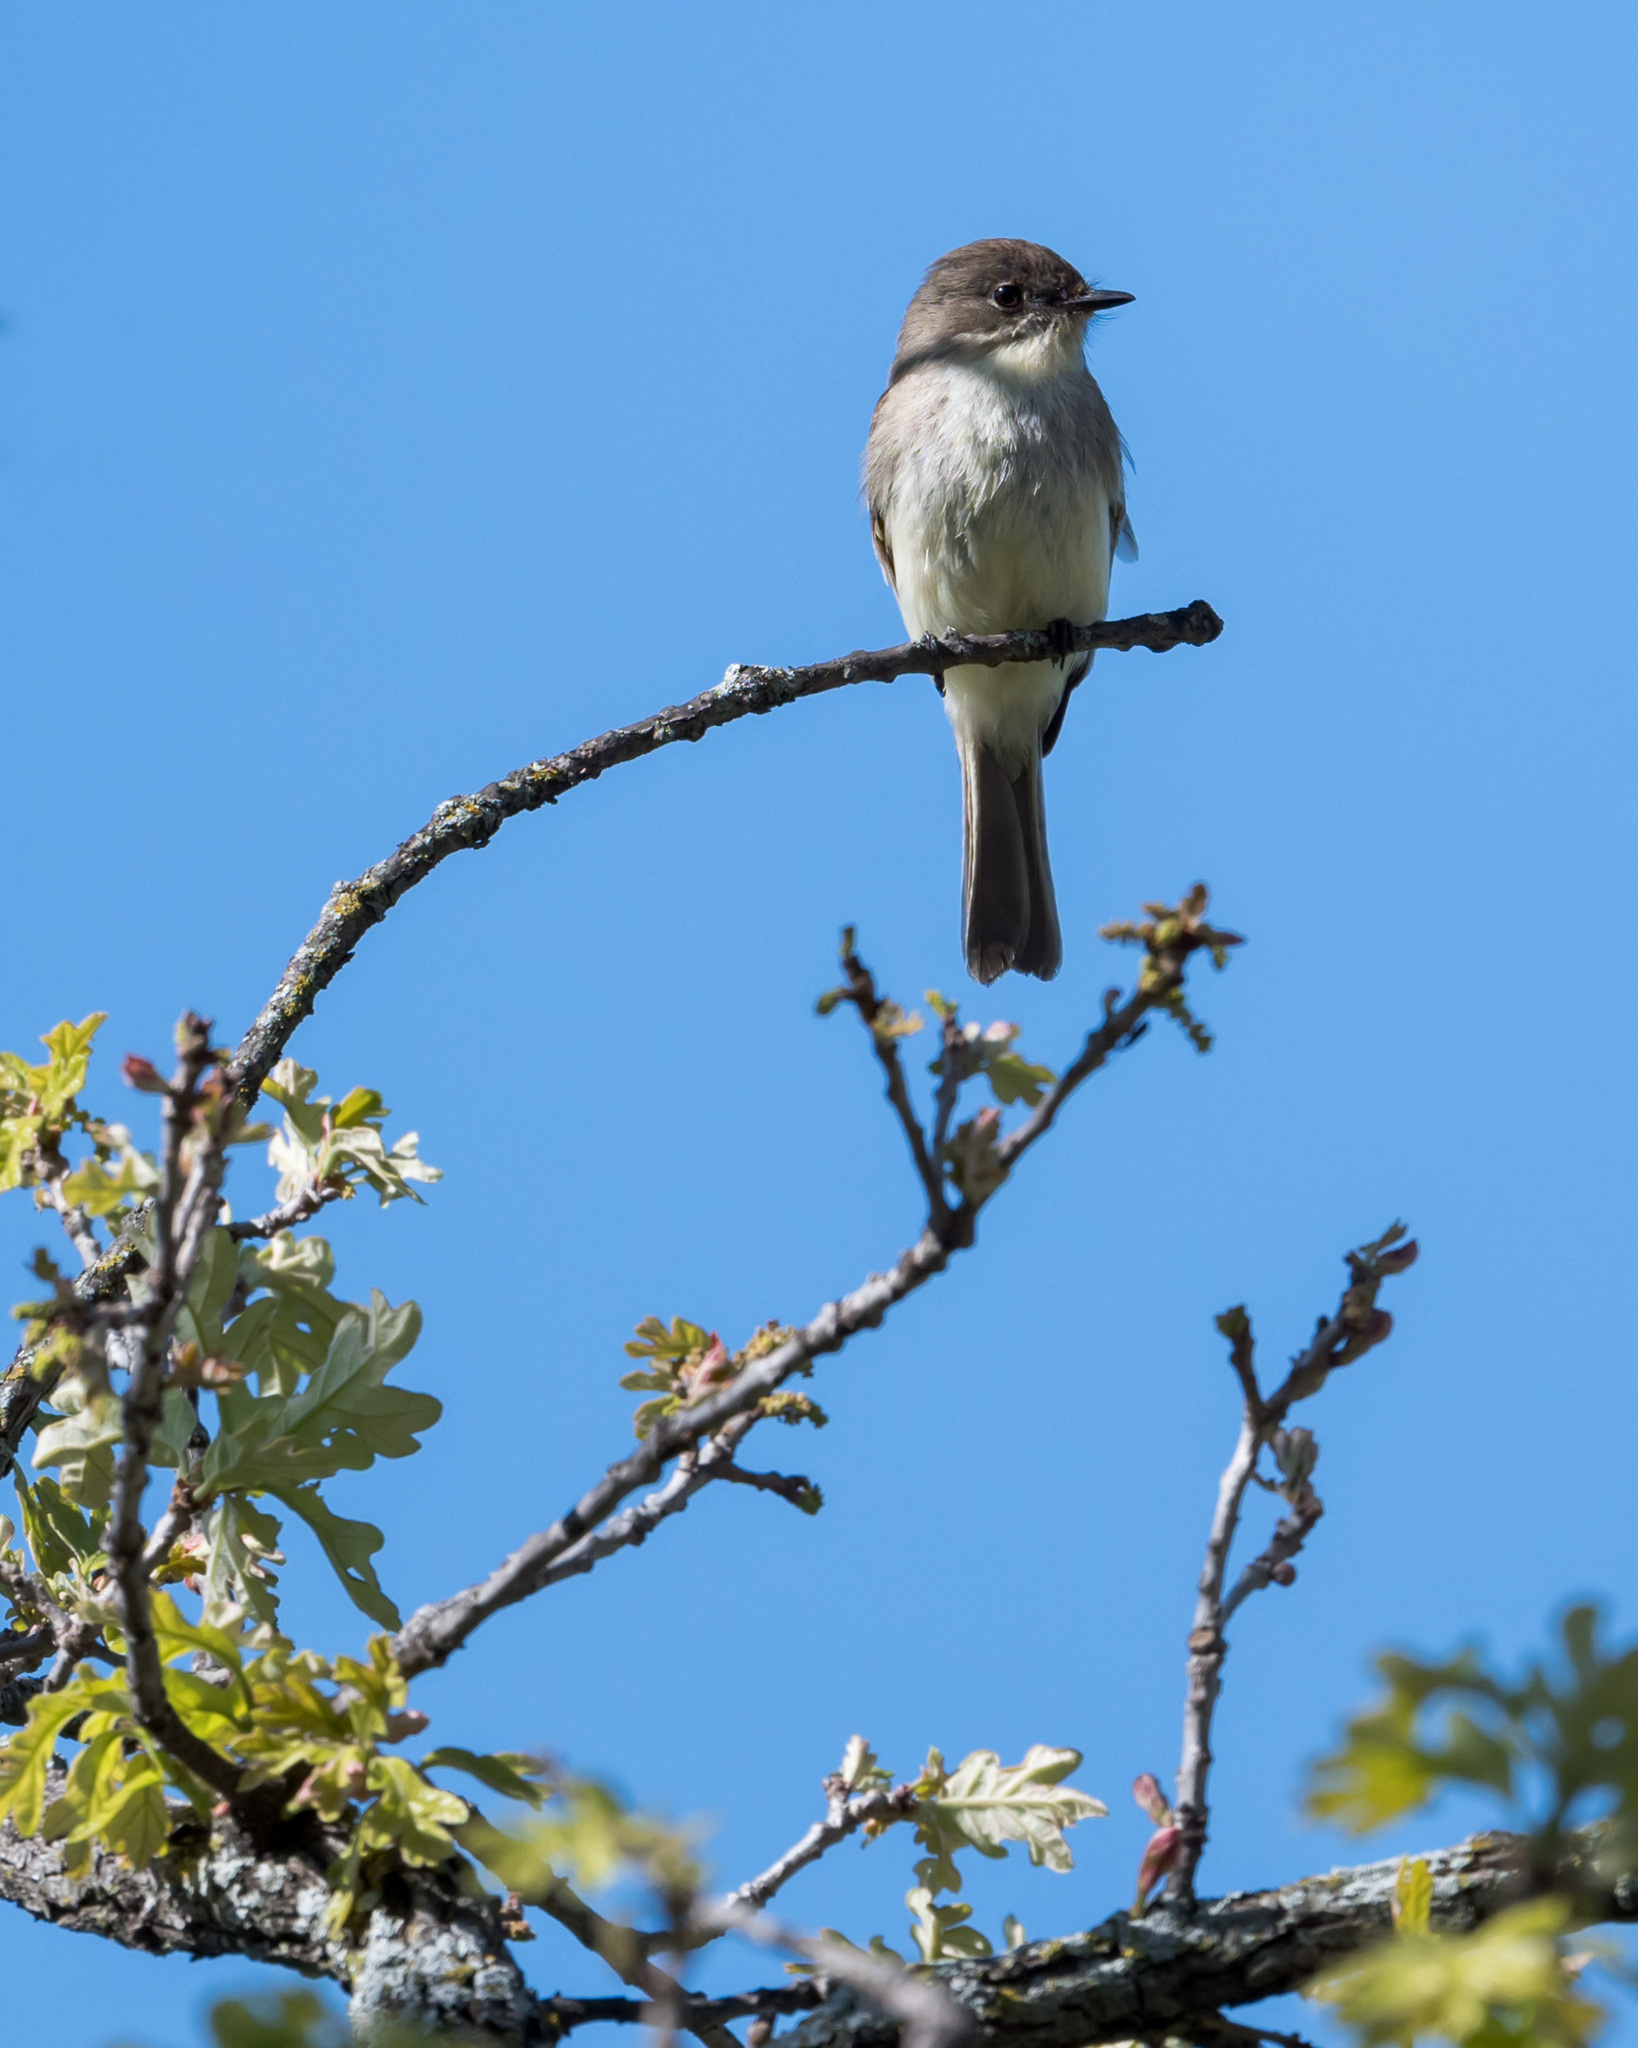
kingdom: Animalia
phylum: Chordata
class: Aves
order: Passeriformes
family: Tyrannidae
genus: Sayornis
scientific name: Sayornis phoebe
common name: Eastern phoebe
